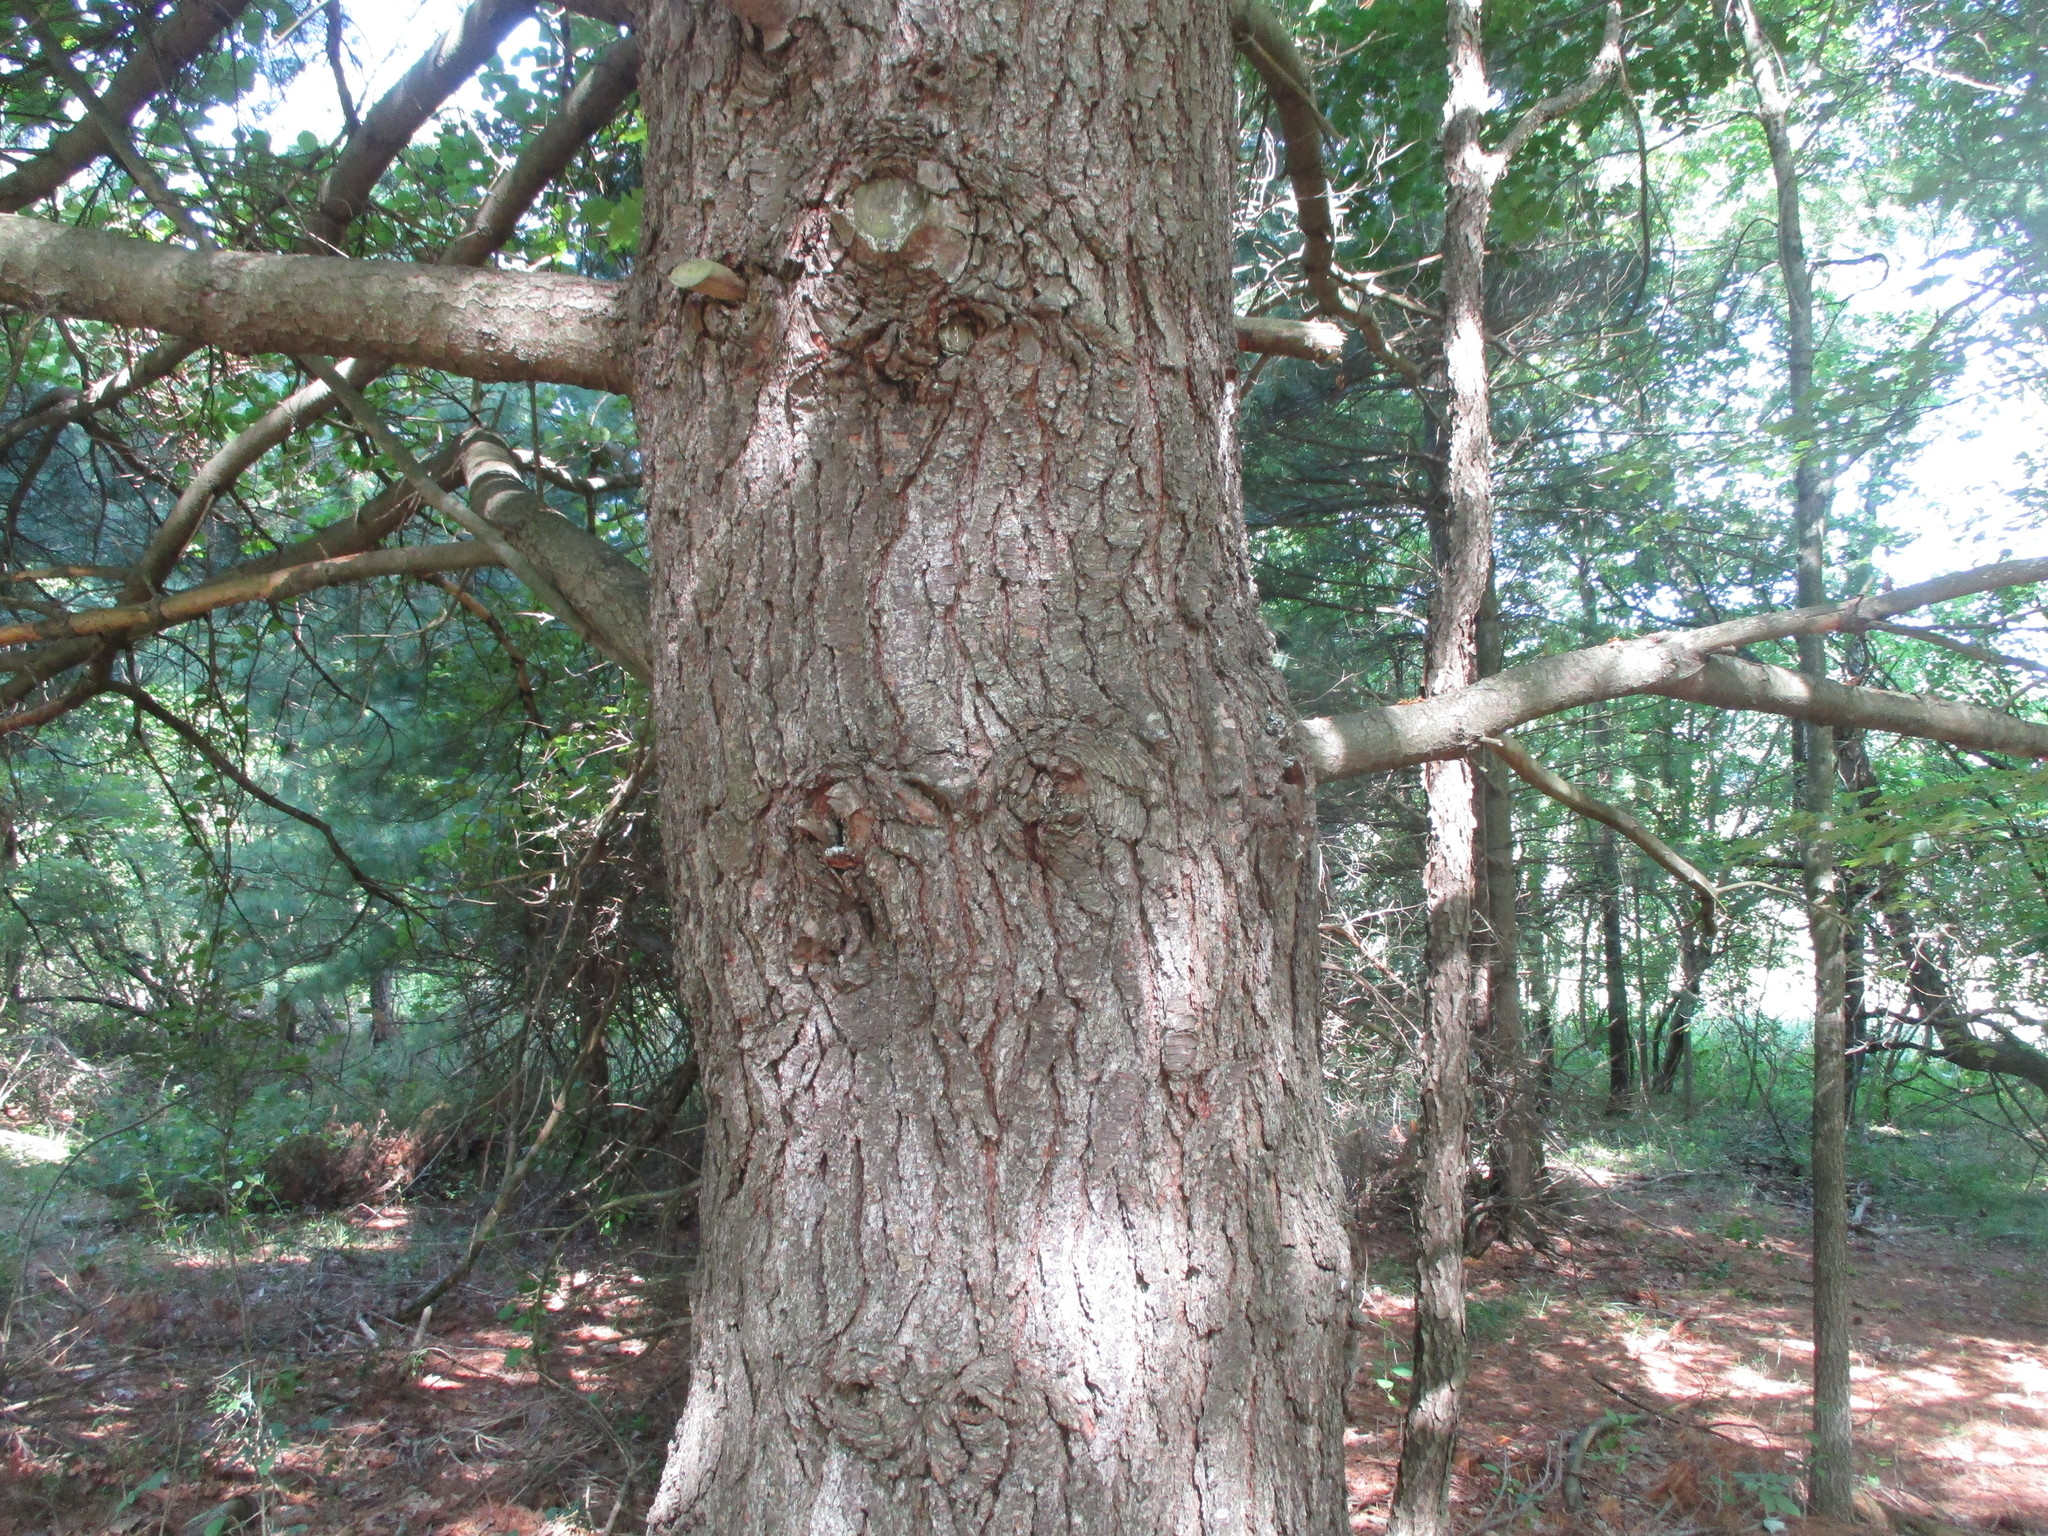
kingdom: Plantae
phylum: Tracheophyta
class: Pinopsida
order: Pinales
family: Pinaceae
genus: Pinus
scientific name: Pinus strobus
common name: Weymouth pine
